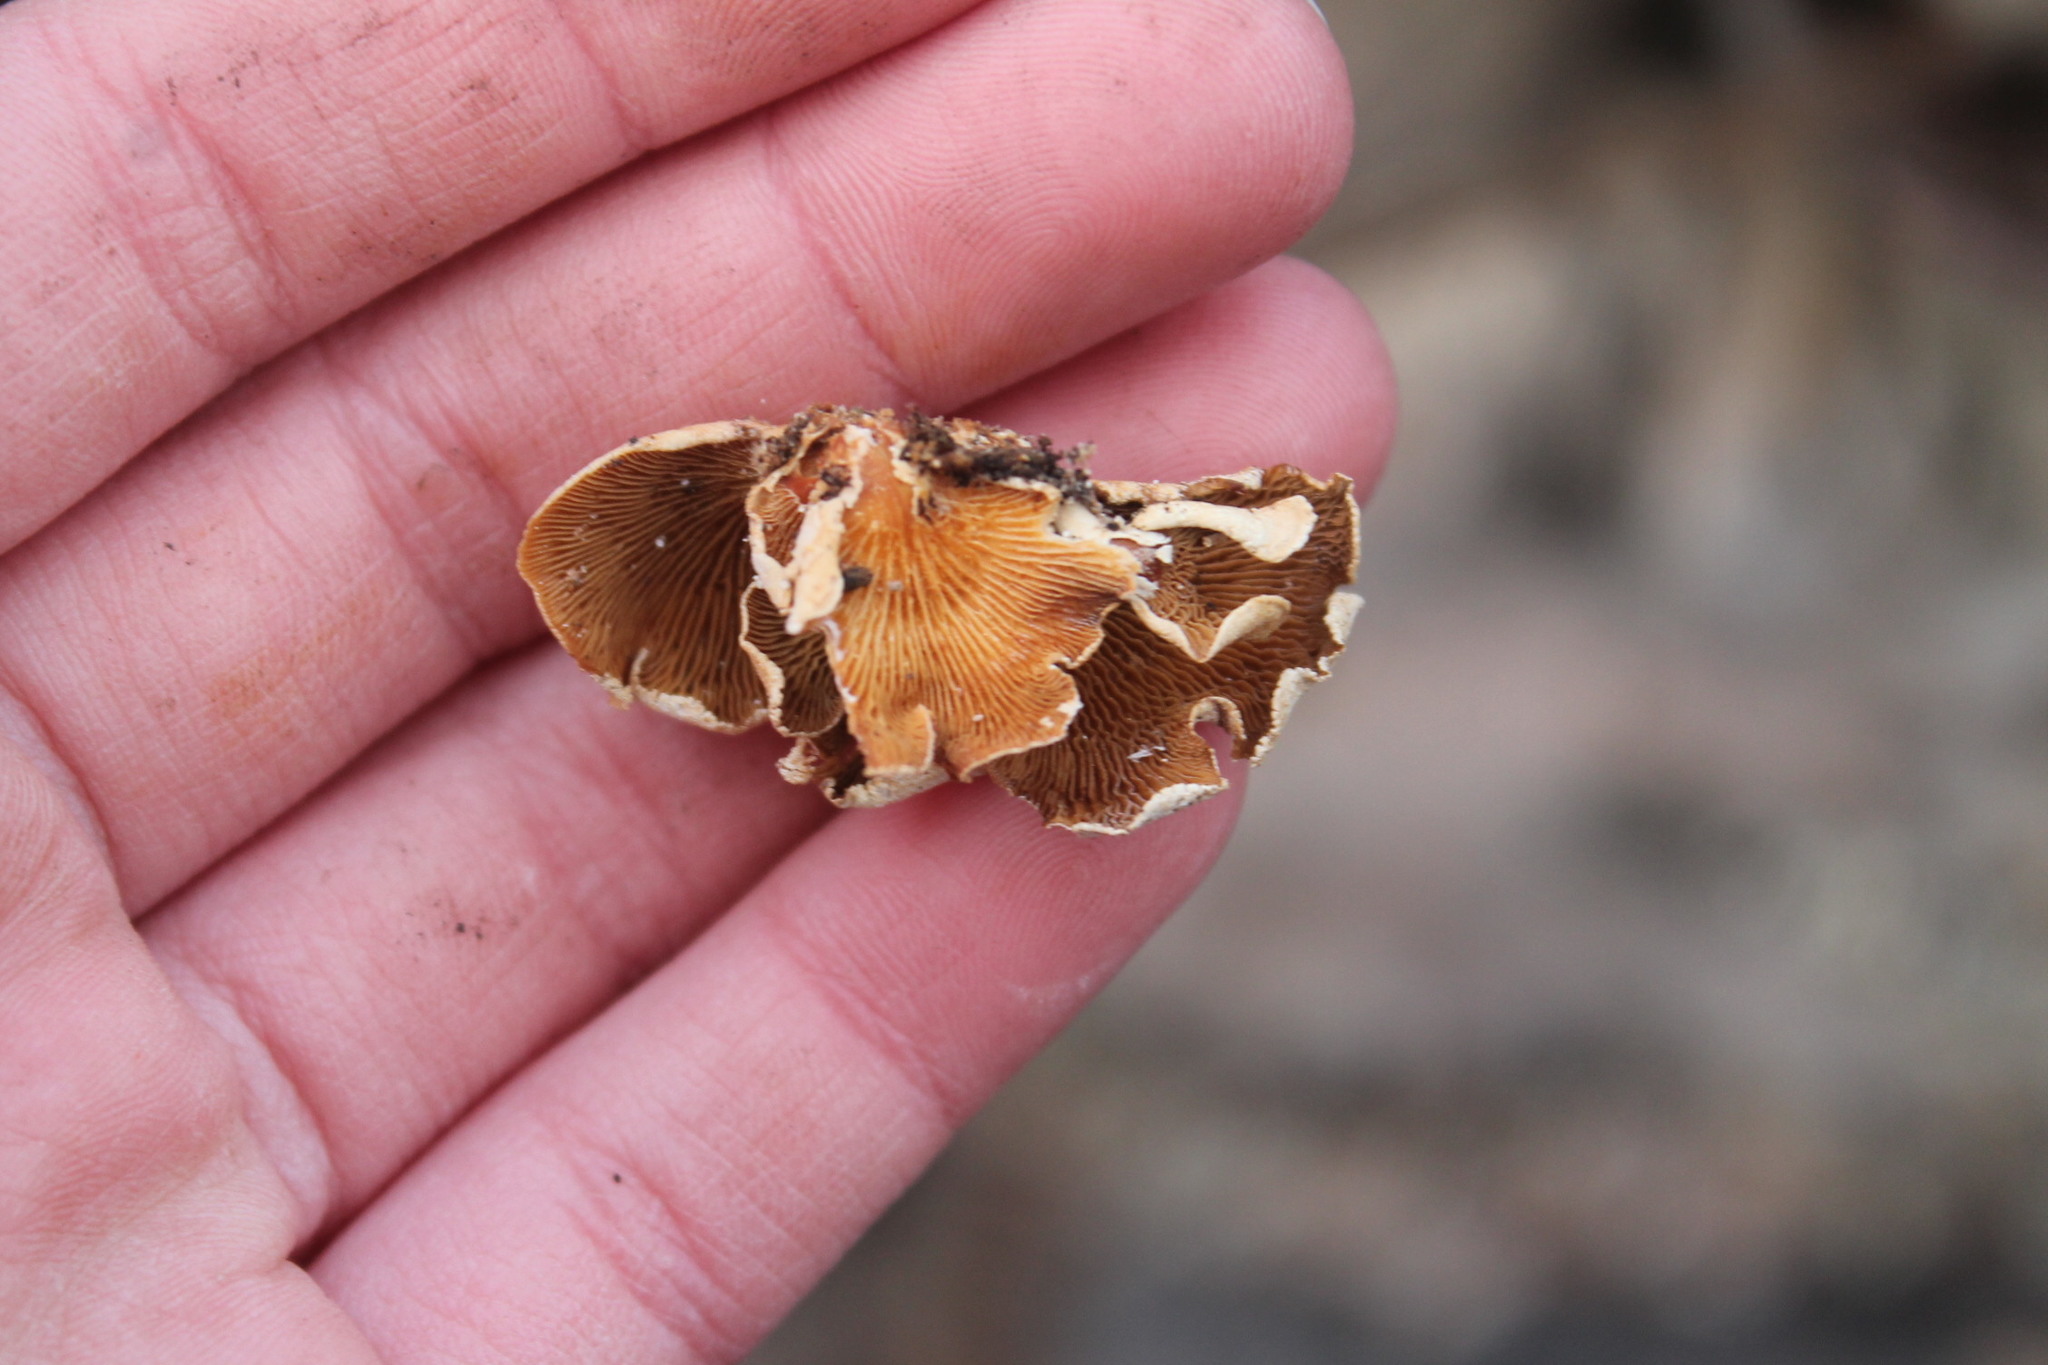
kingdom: Fungi
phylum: Basidiomycota
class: Agaricomycetes
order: Agaricales
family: Mycenaceae
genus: Panellus
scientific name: Panellus stipticus
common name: Bitter oysterling
